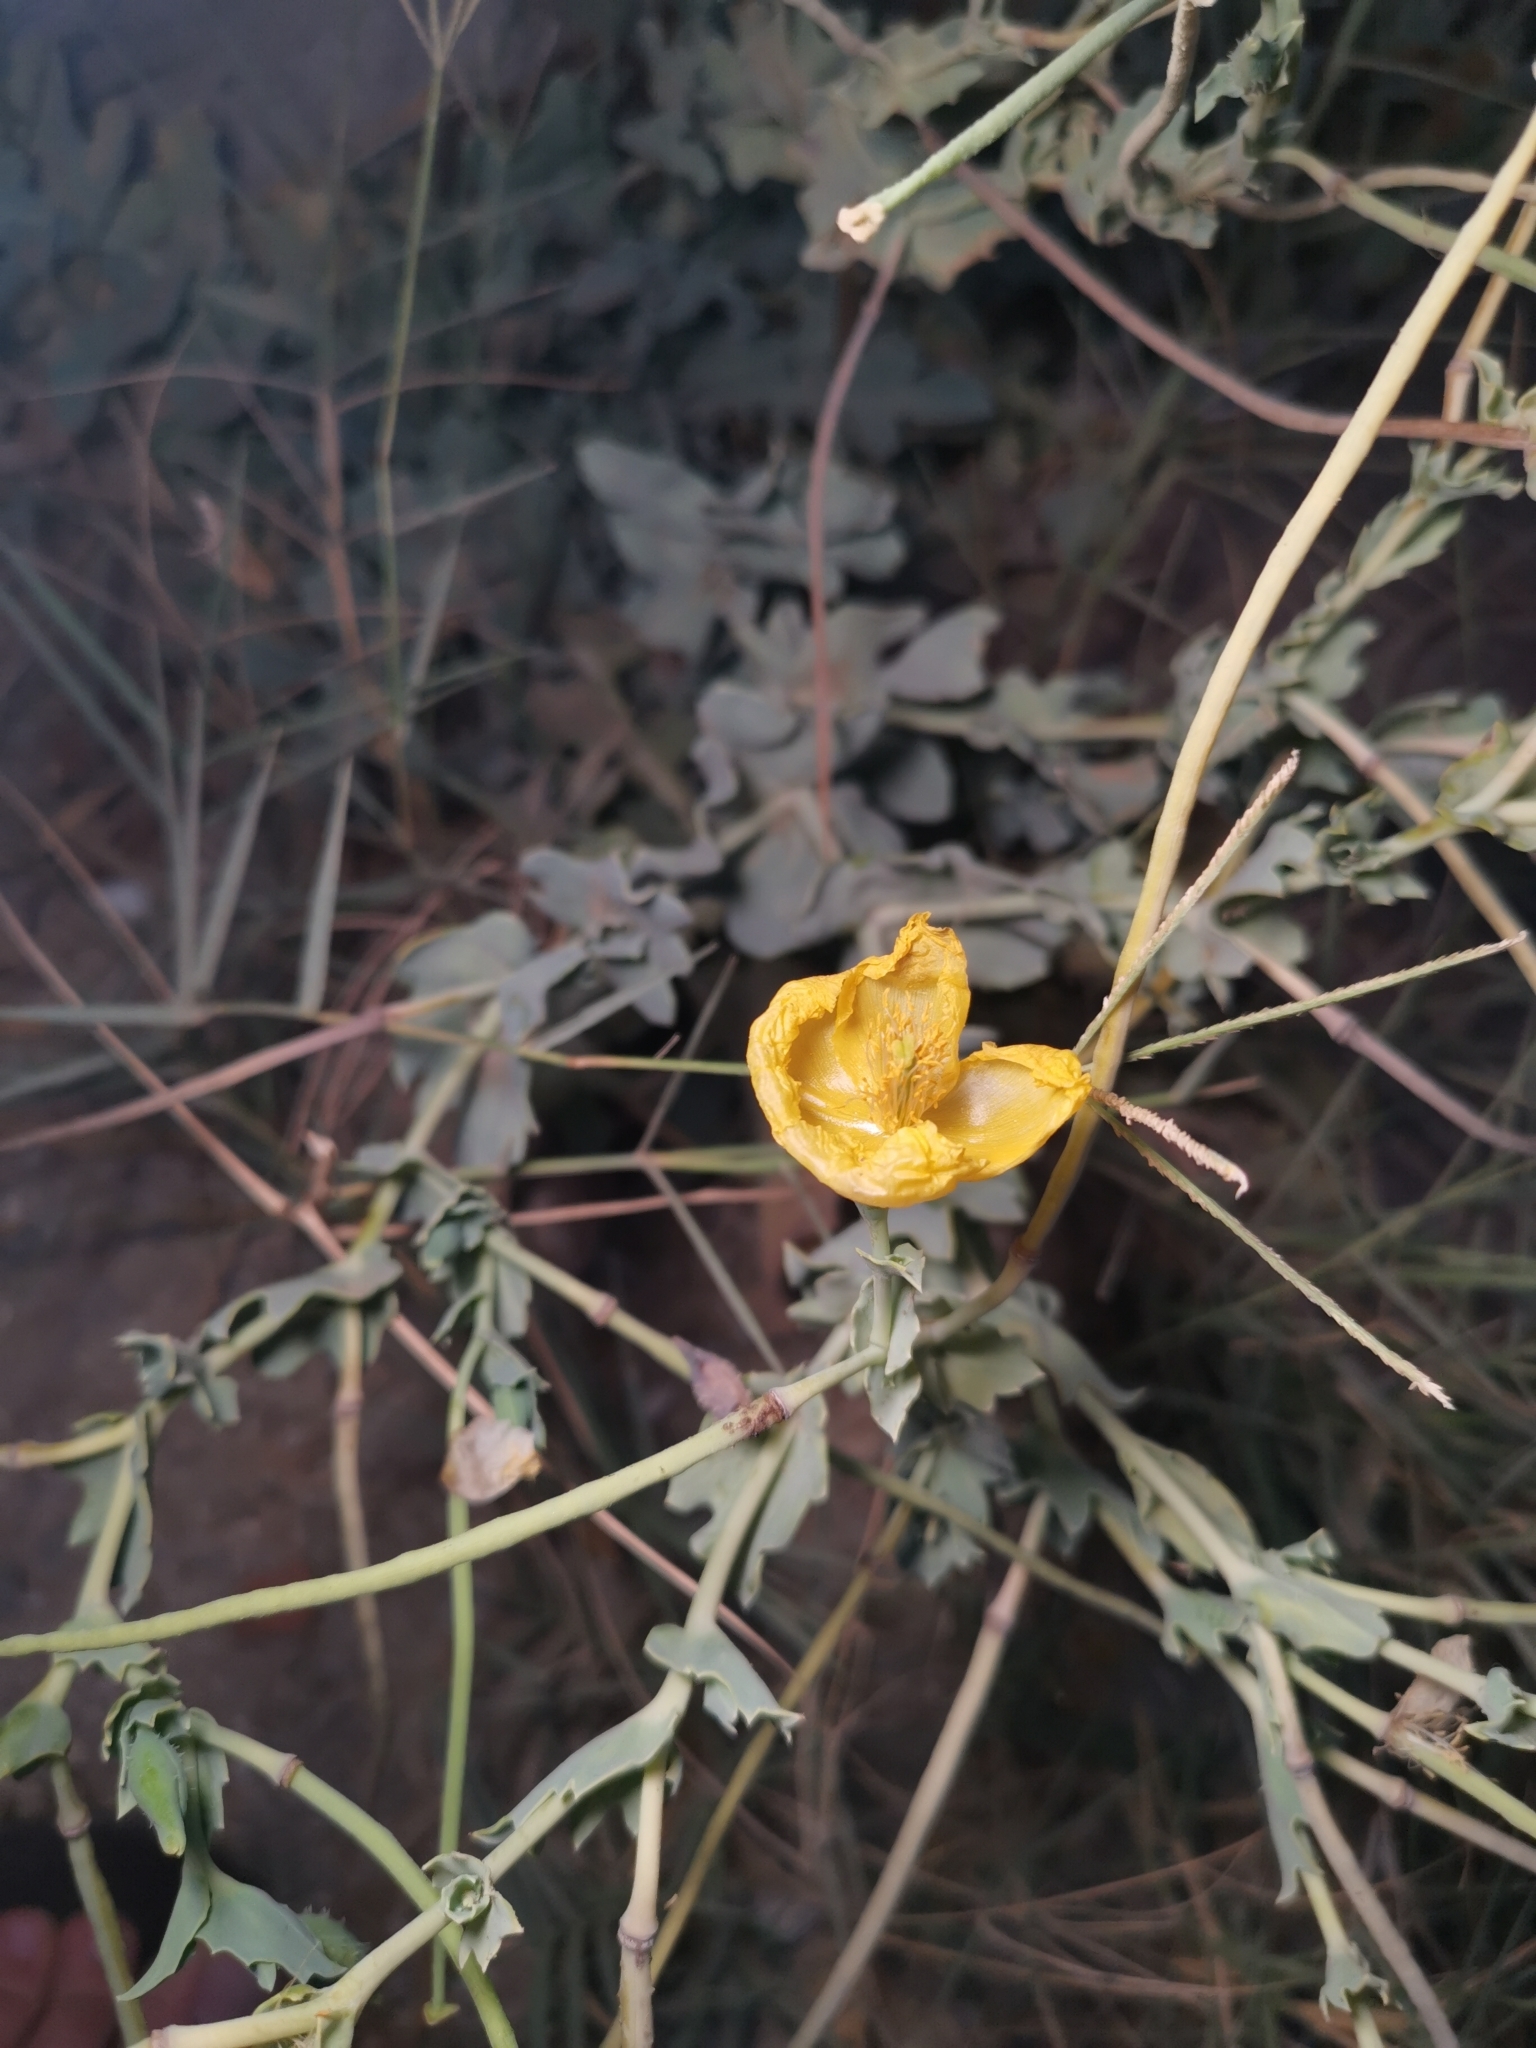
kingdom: Plantae
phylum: Tracheophyta
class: Magnoliopsida
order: Ranunculales
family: Papaveraceae
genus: Glaucium
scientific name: Glaucium flavum
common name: Yellow horned-poppy
